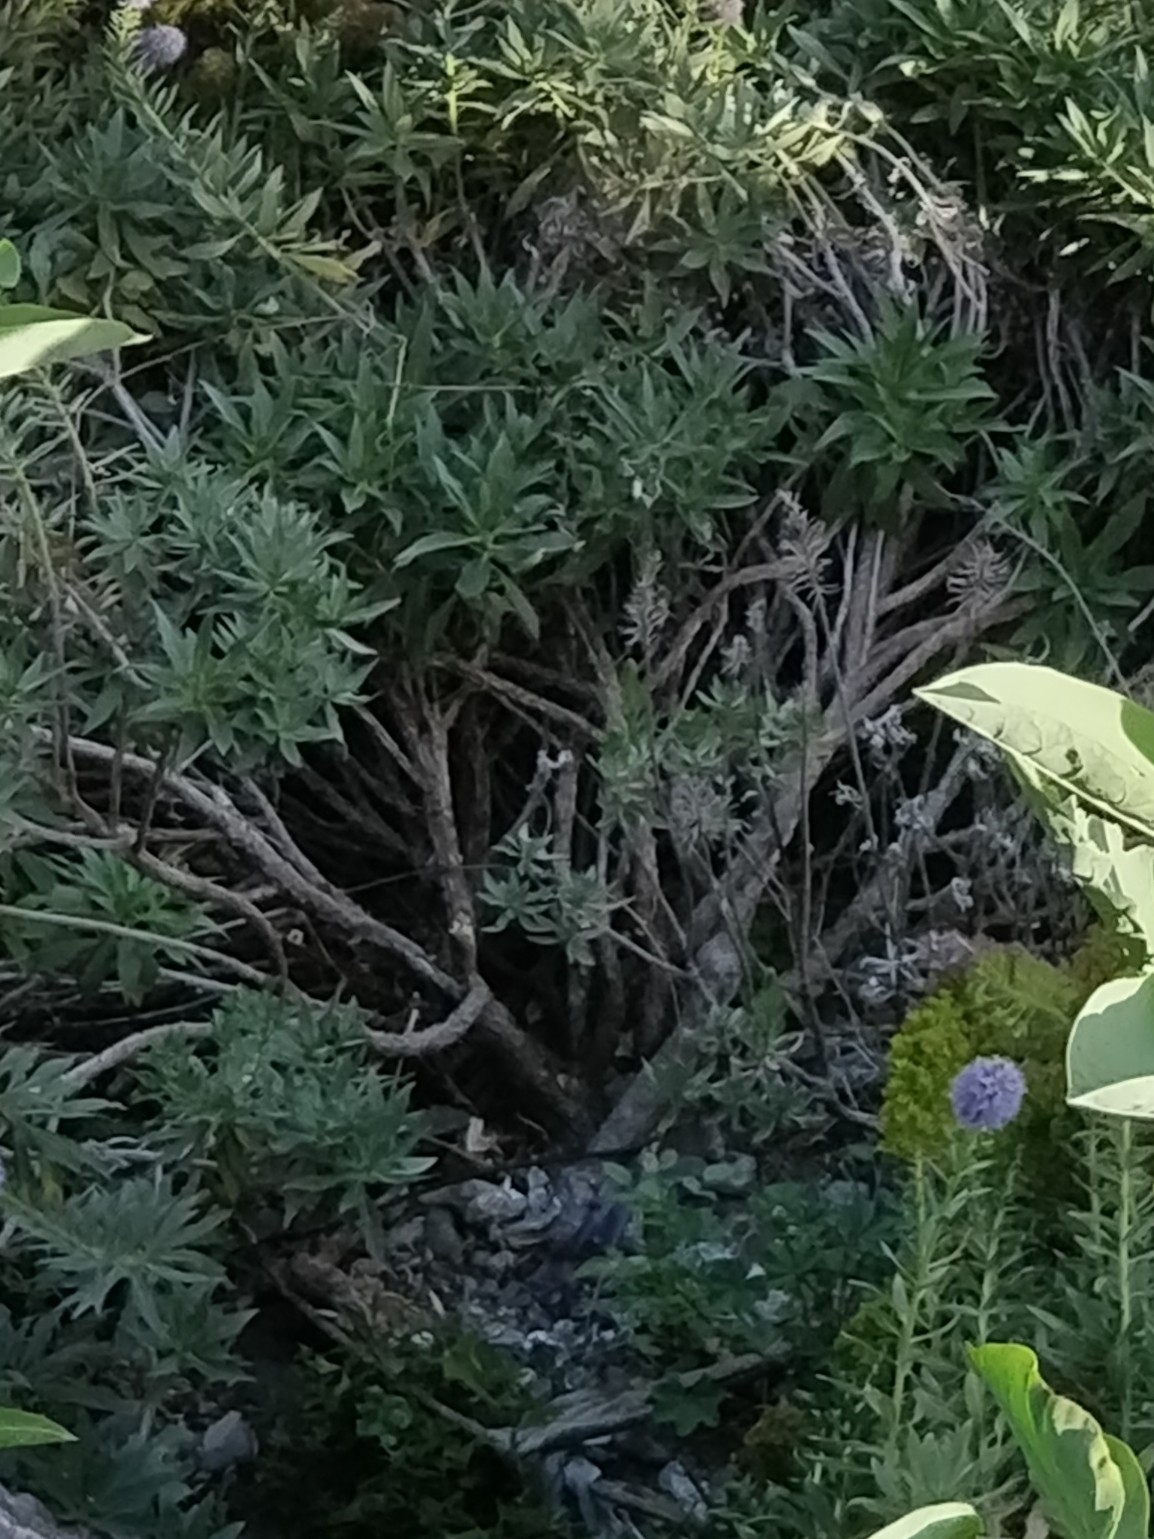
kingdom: Plantae
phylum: Tracheophyta
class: Magnoliopsida
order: Boraginales
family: Boraginaceae
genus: Echium
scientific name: Echium nervosum
